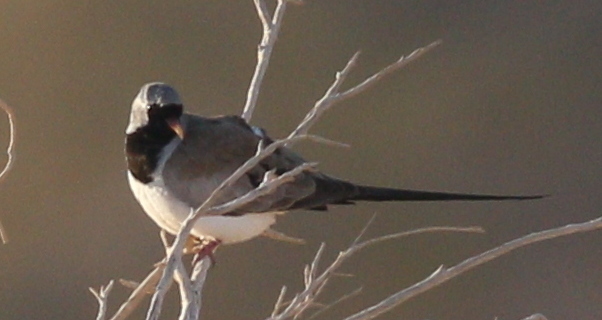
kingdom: Animalia
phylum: Chordata
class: Aves
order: Columbiformes
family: Columbidae
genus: Oena
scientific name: Oena capensis
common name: Namaqua dove
